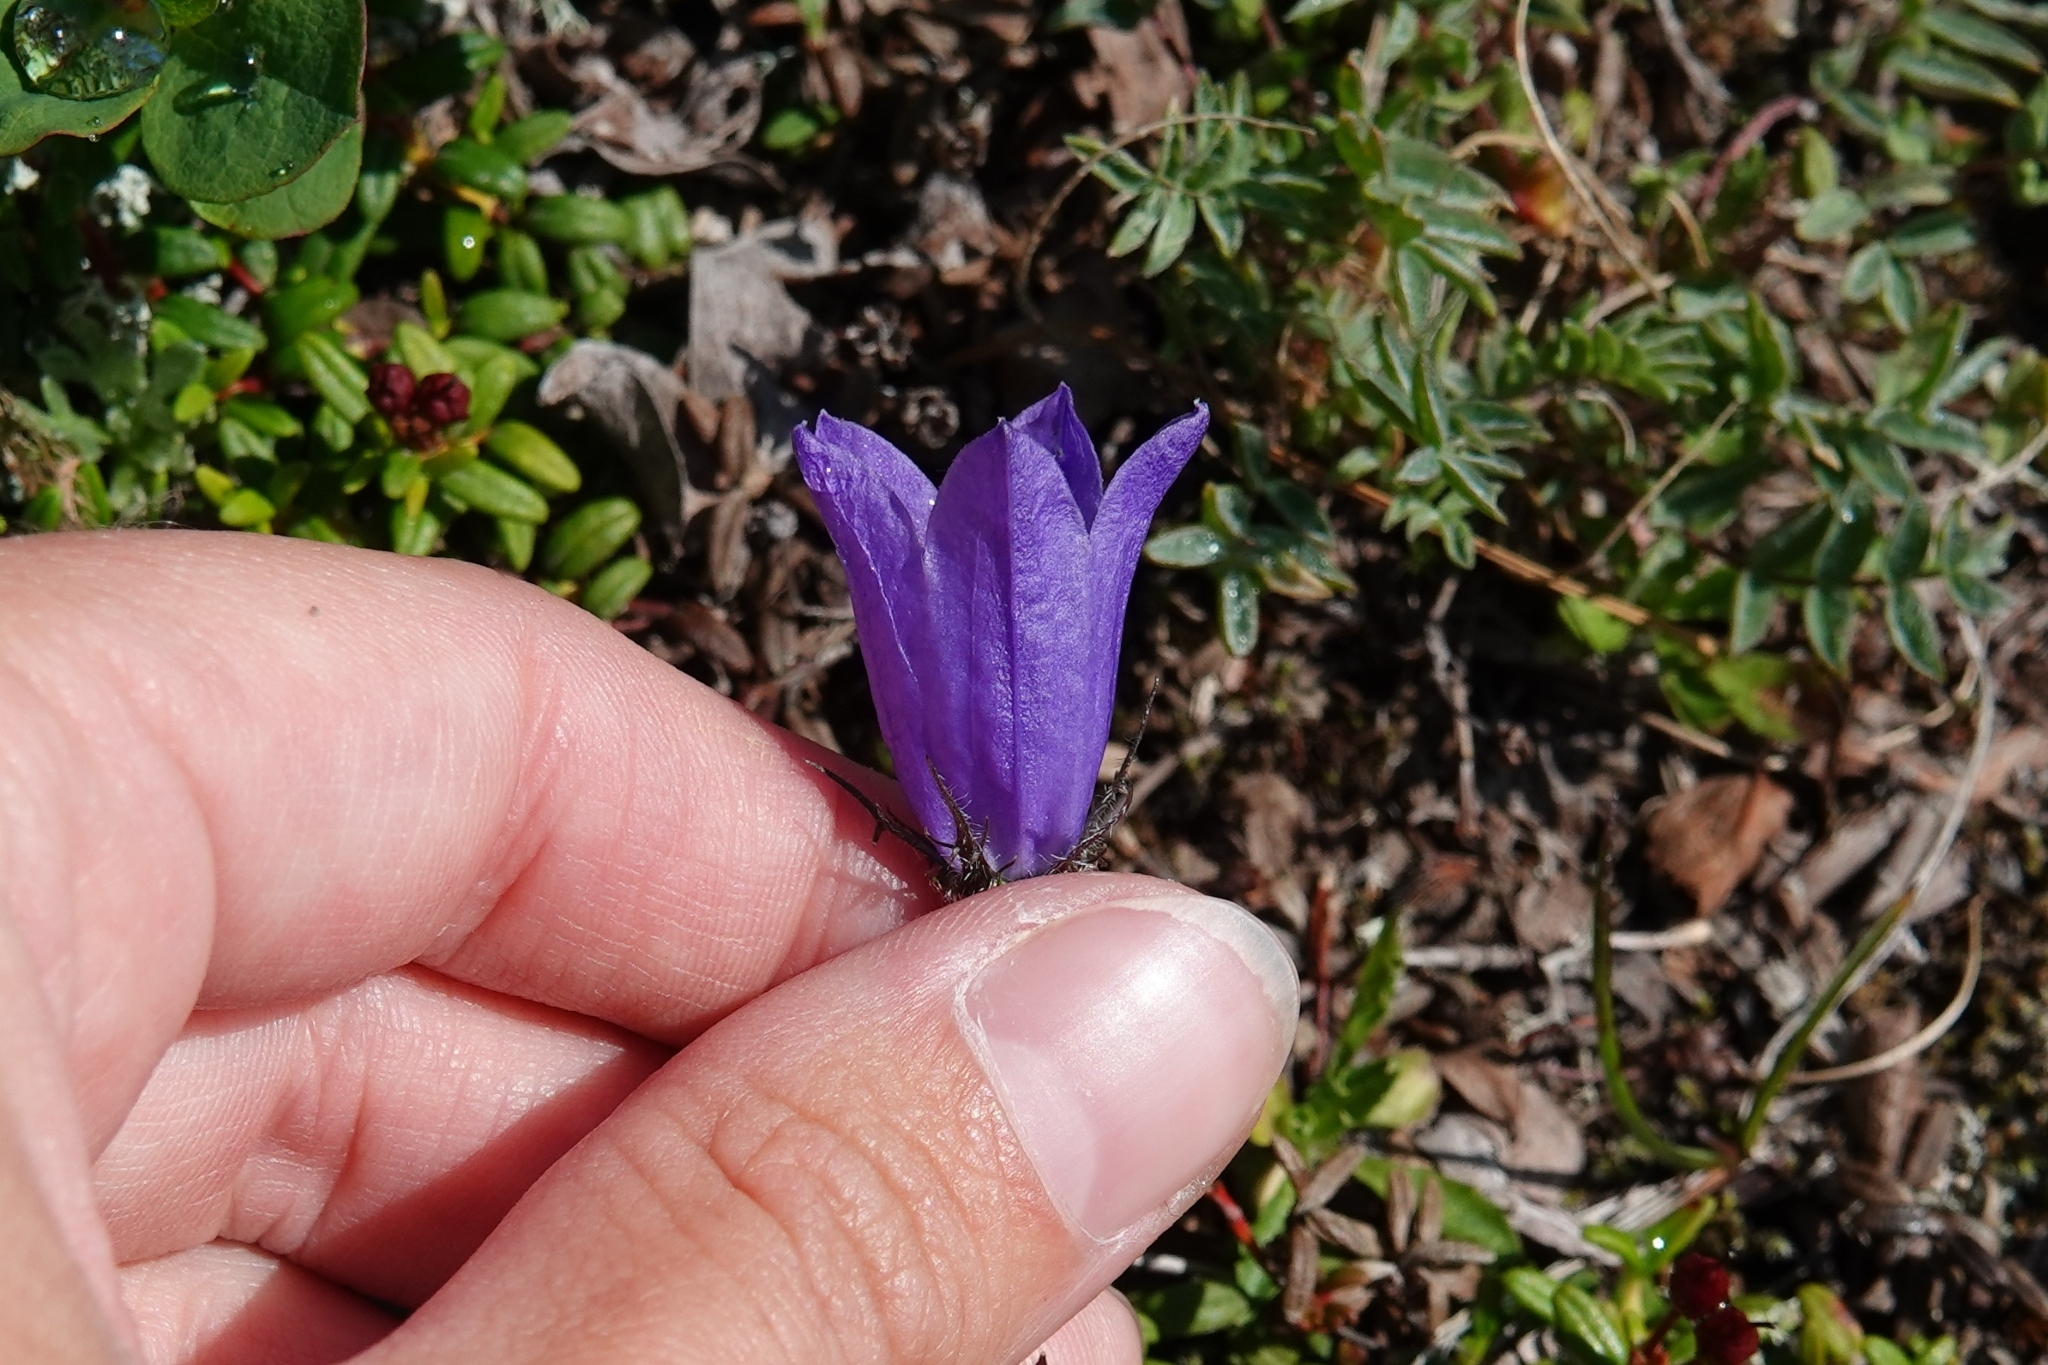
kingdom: Plantae
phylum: Tracheophyta
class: Magnoliopsida
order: Asterales
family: Campanulaceae
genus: Campanula
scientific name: Campanula lasiocarpa
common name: Mountain harebell
